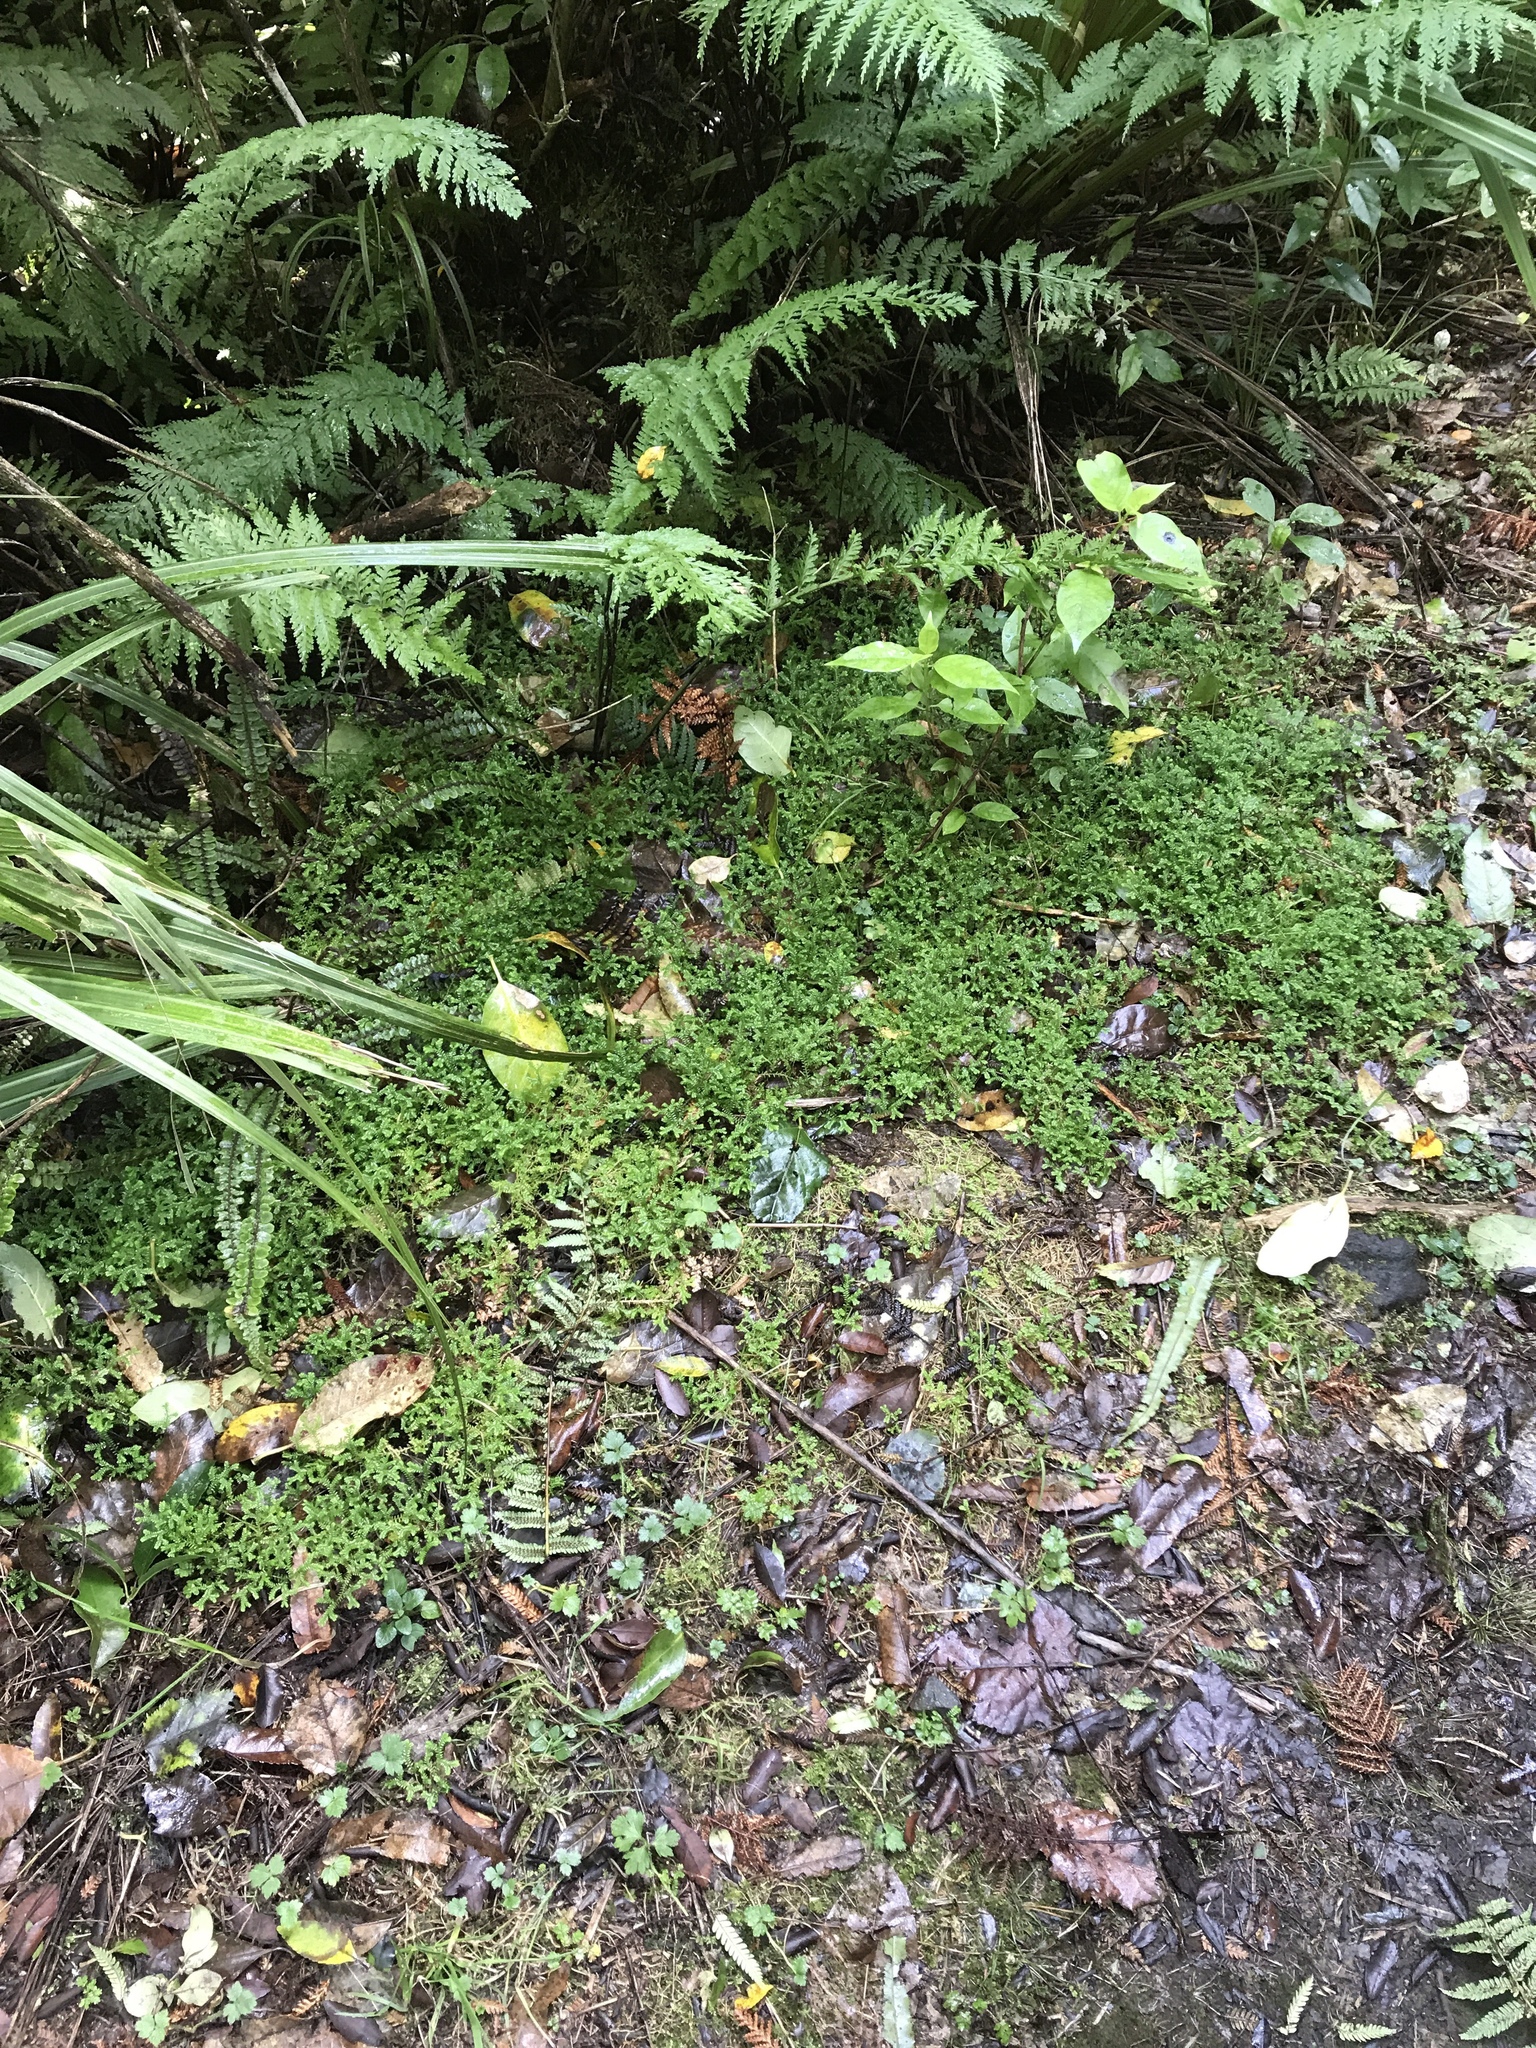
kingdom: Plantae
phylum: Tracheophyta
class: Lycopodiopsida
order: Selaginellales
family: Selaginellaceae
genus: Selaginella
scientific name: Selaginella kraussiana
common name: Krauss' spikemoss
